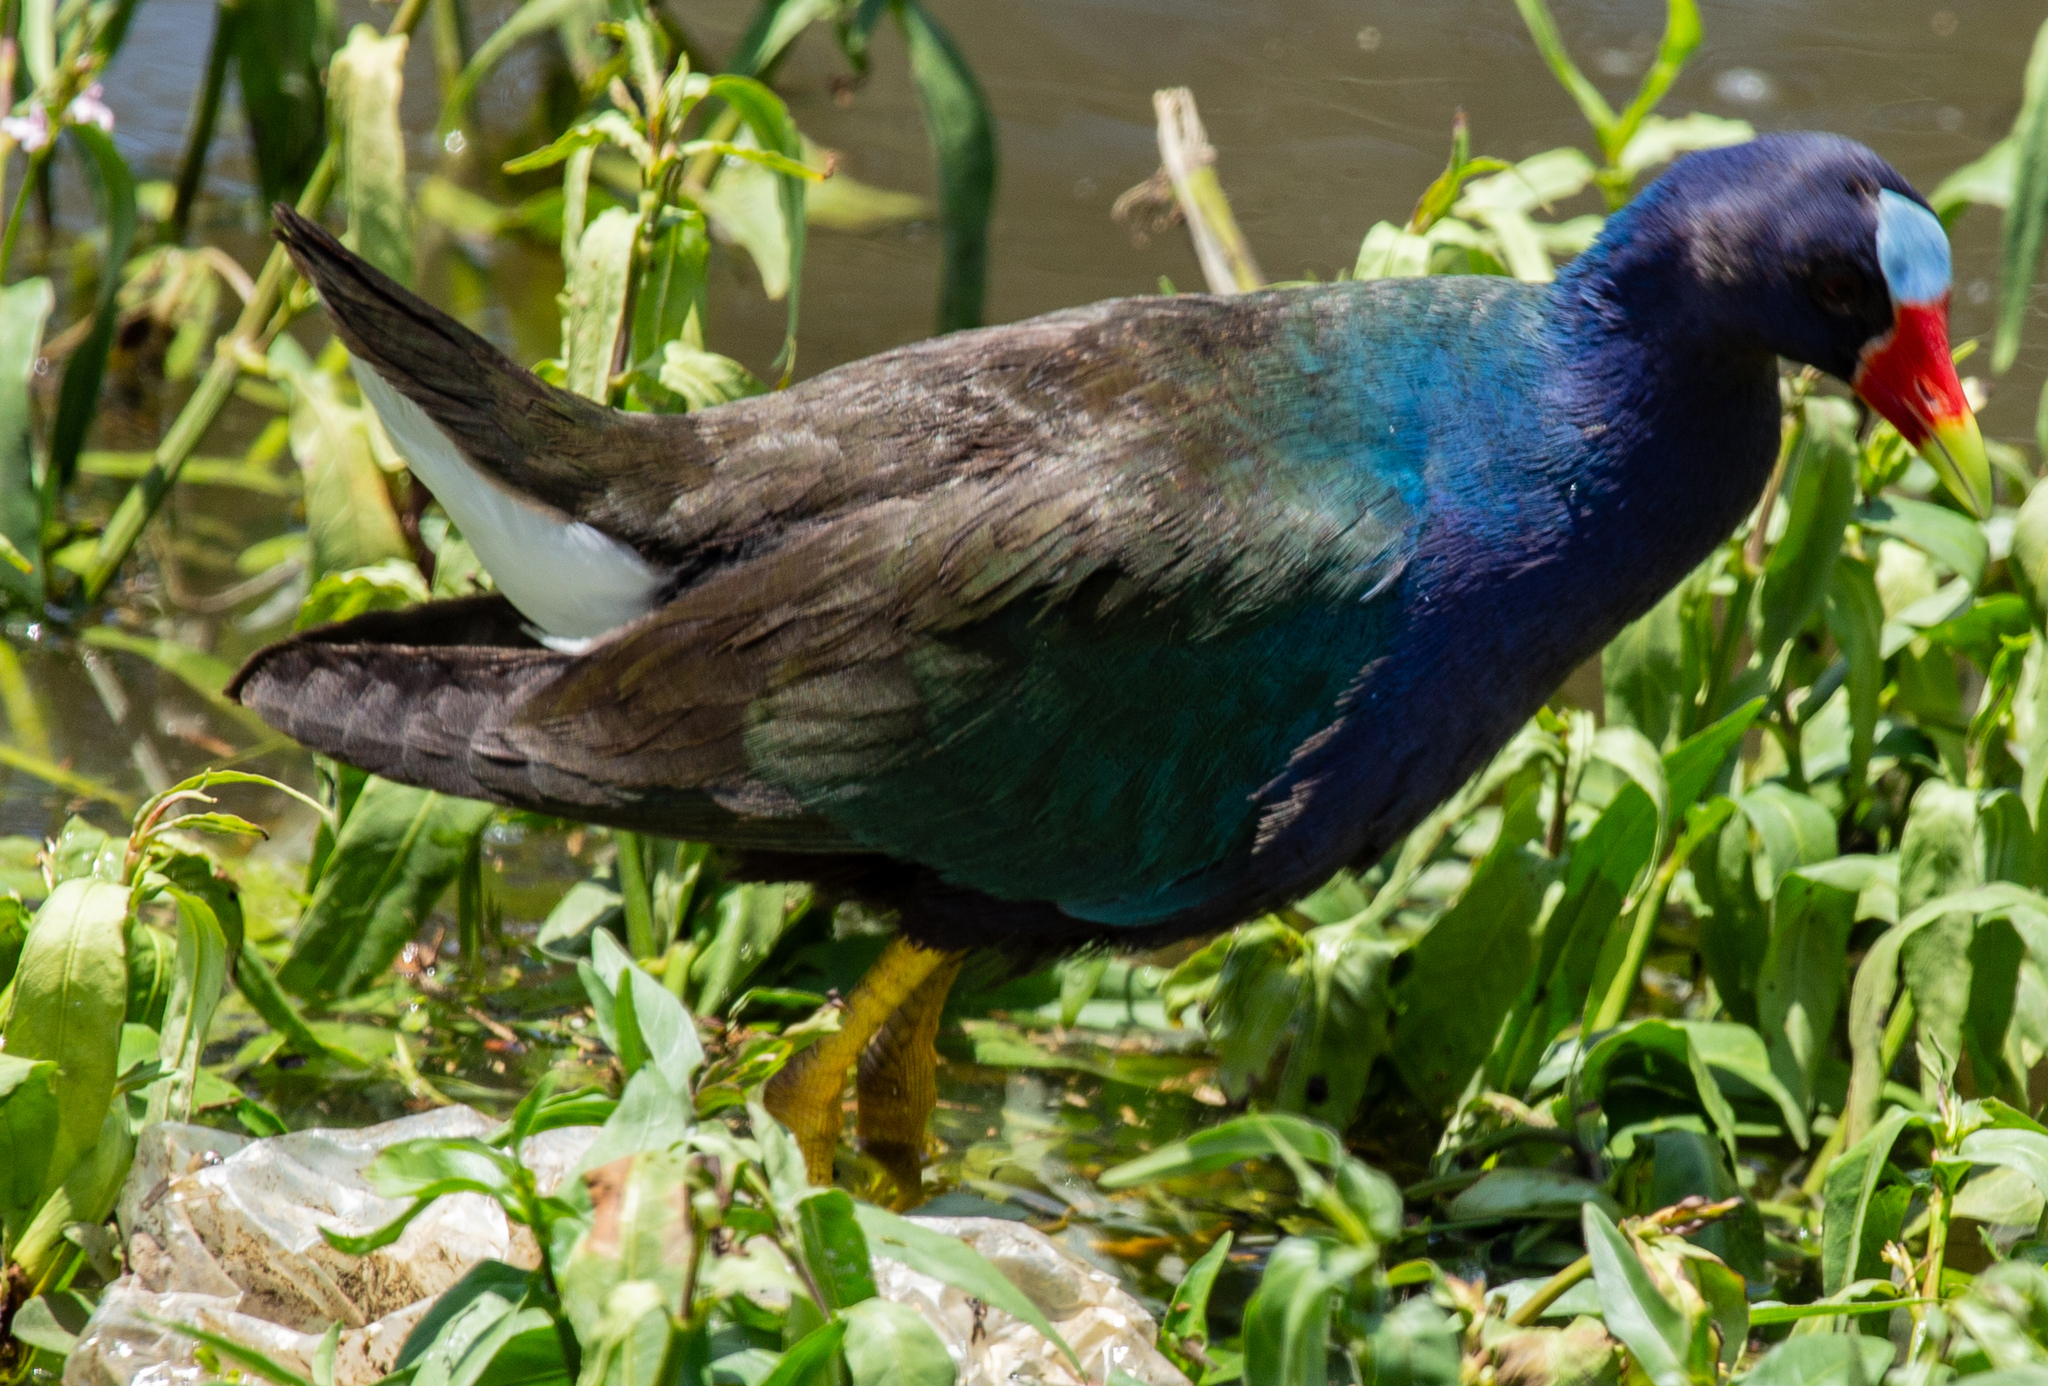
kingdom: Animalia
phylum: Chordata
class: Aves
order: Gruiformes
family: Rallidae
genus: Porphyrio
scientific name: Porphyrio martinica
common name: Purple gallinule
